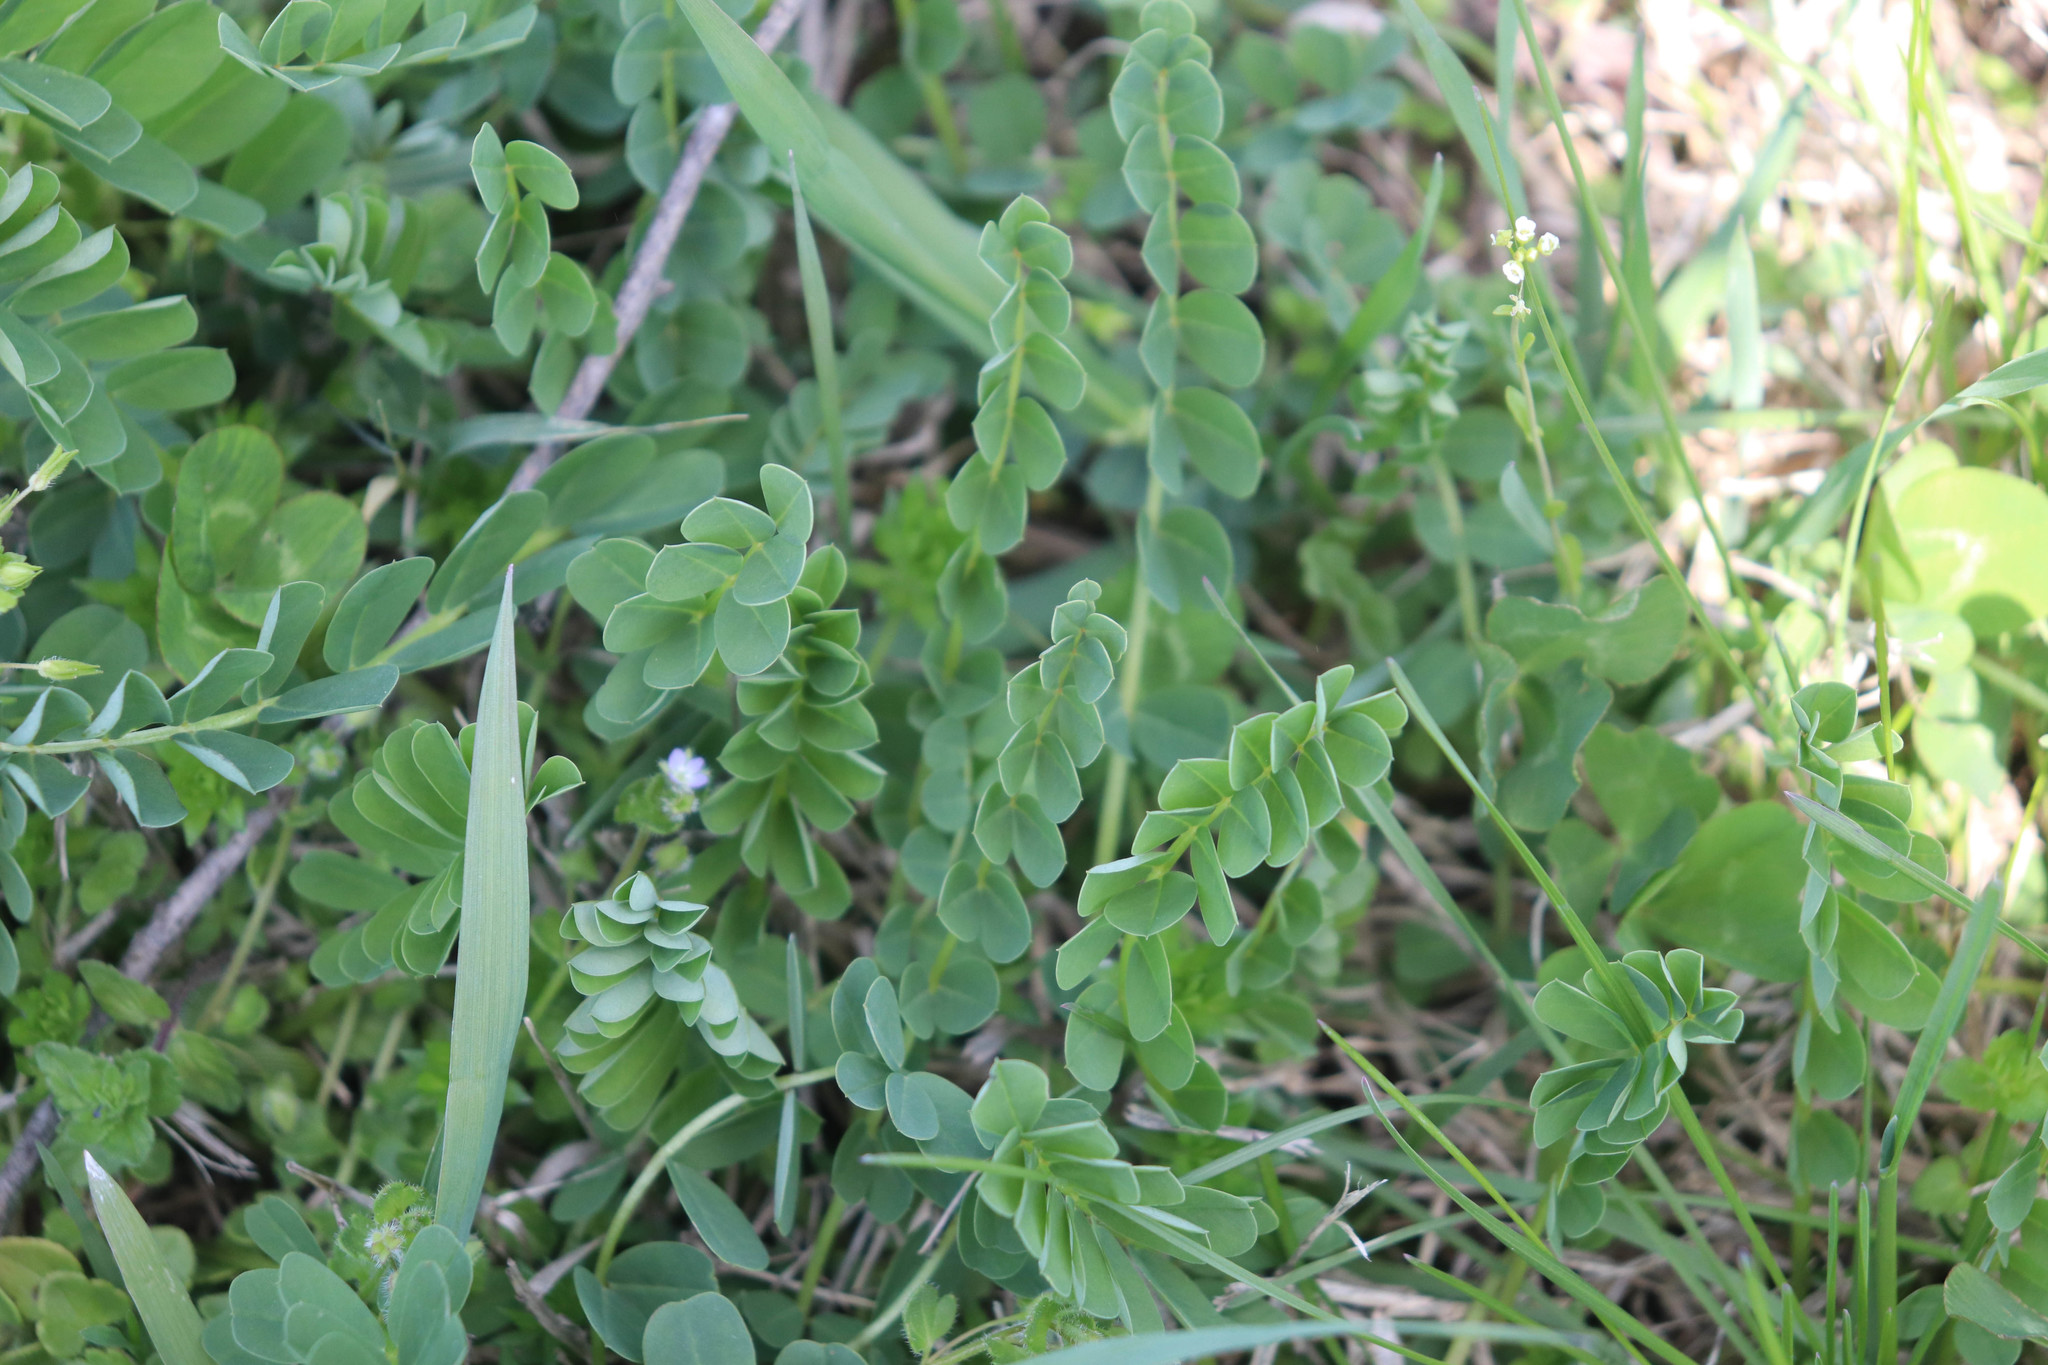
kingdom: Plantae
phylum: Tracheophyta
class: Magnoliopsida
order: Fabales
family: Fabaceae
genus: Coronilla
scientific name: Coronilla varia
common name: Crownvetch
